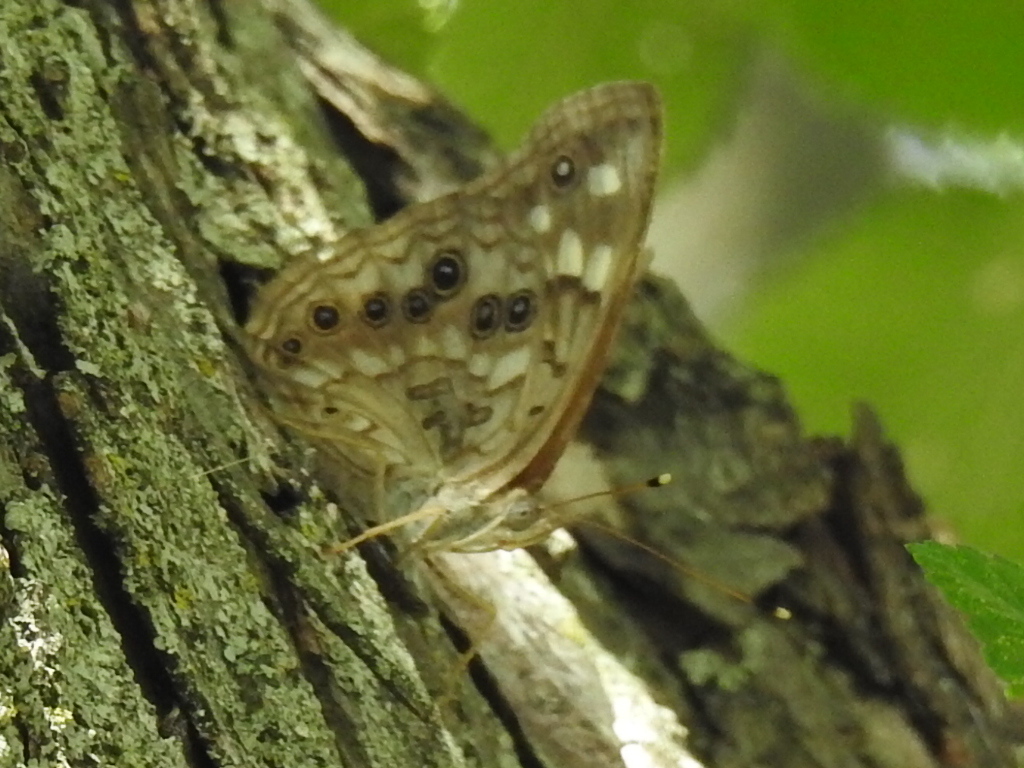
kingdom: Animalia
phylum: Arthropoda
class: Insecta
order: Lepidoptera
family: Nymphalidae
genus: Asterocampa
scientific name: Asterocampa celtis
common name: Hackberry emperor
